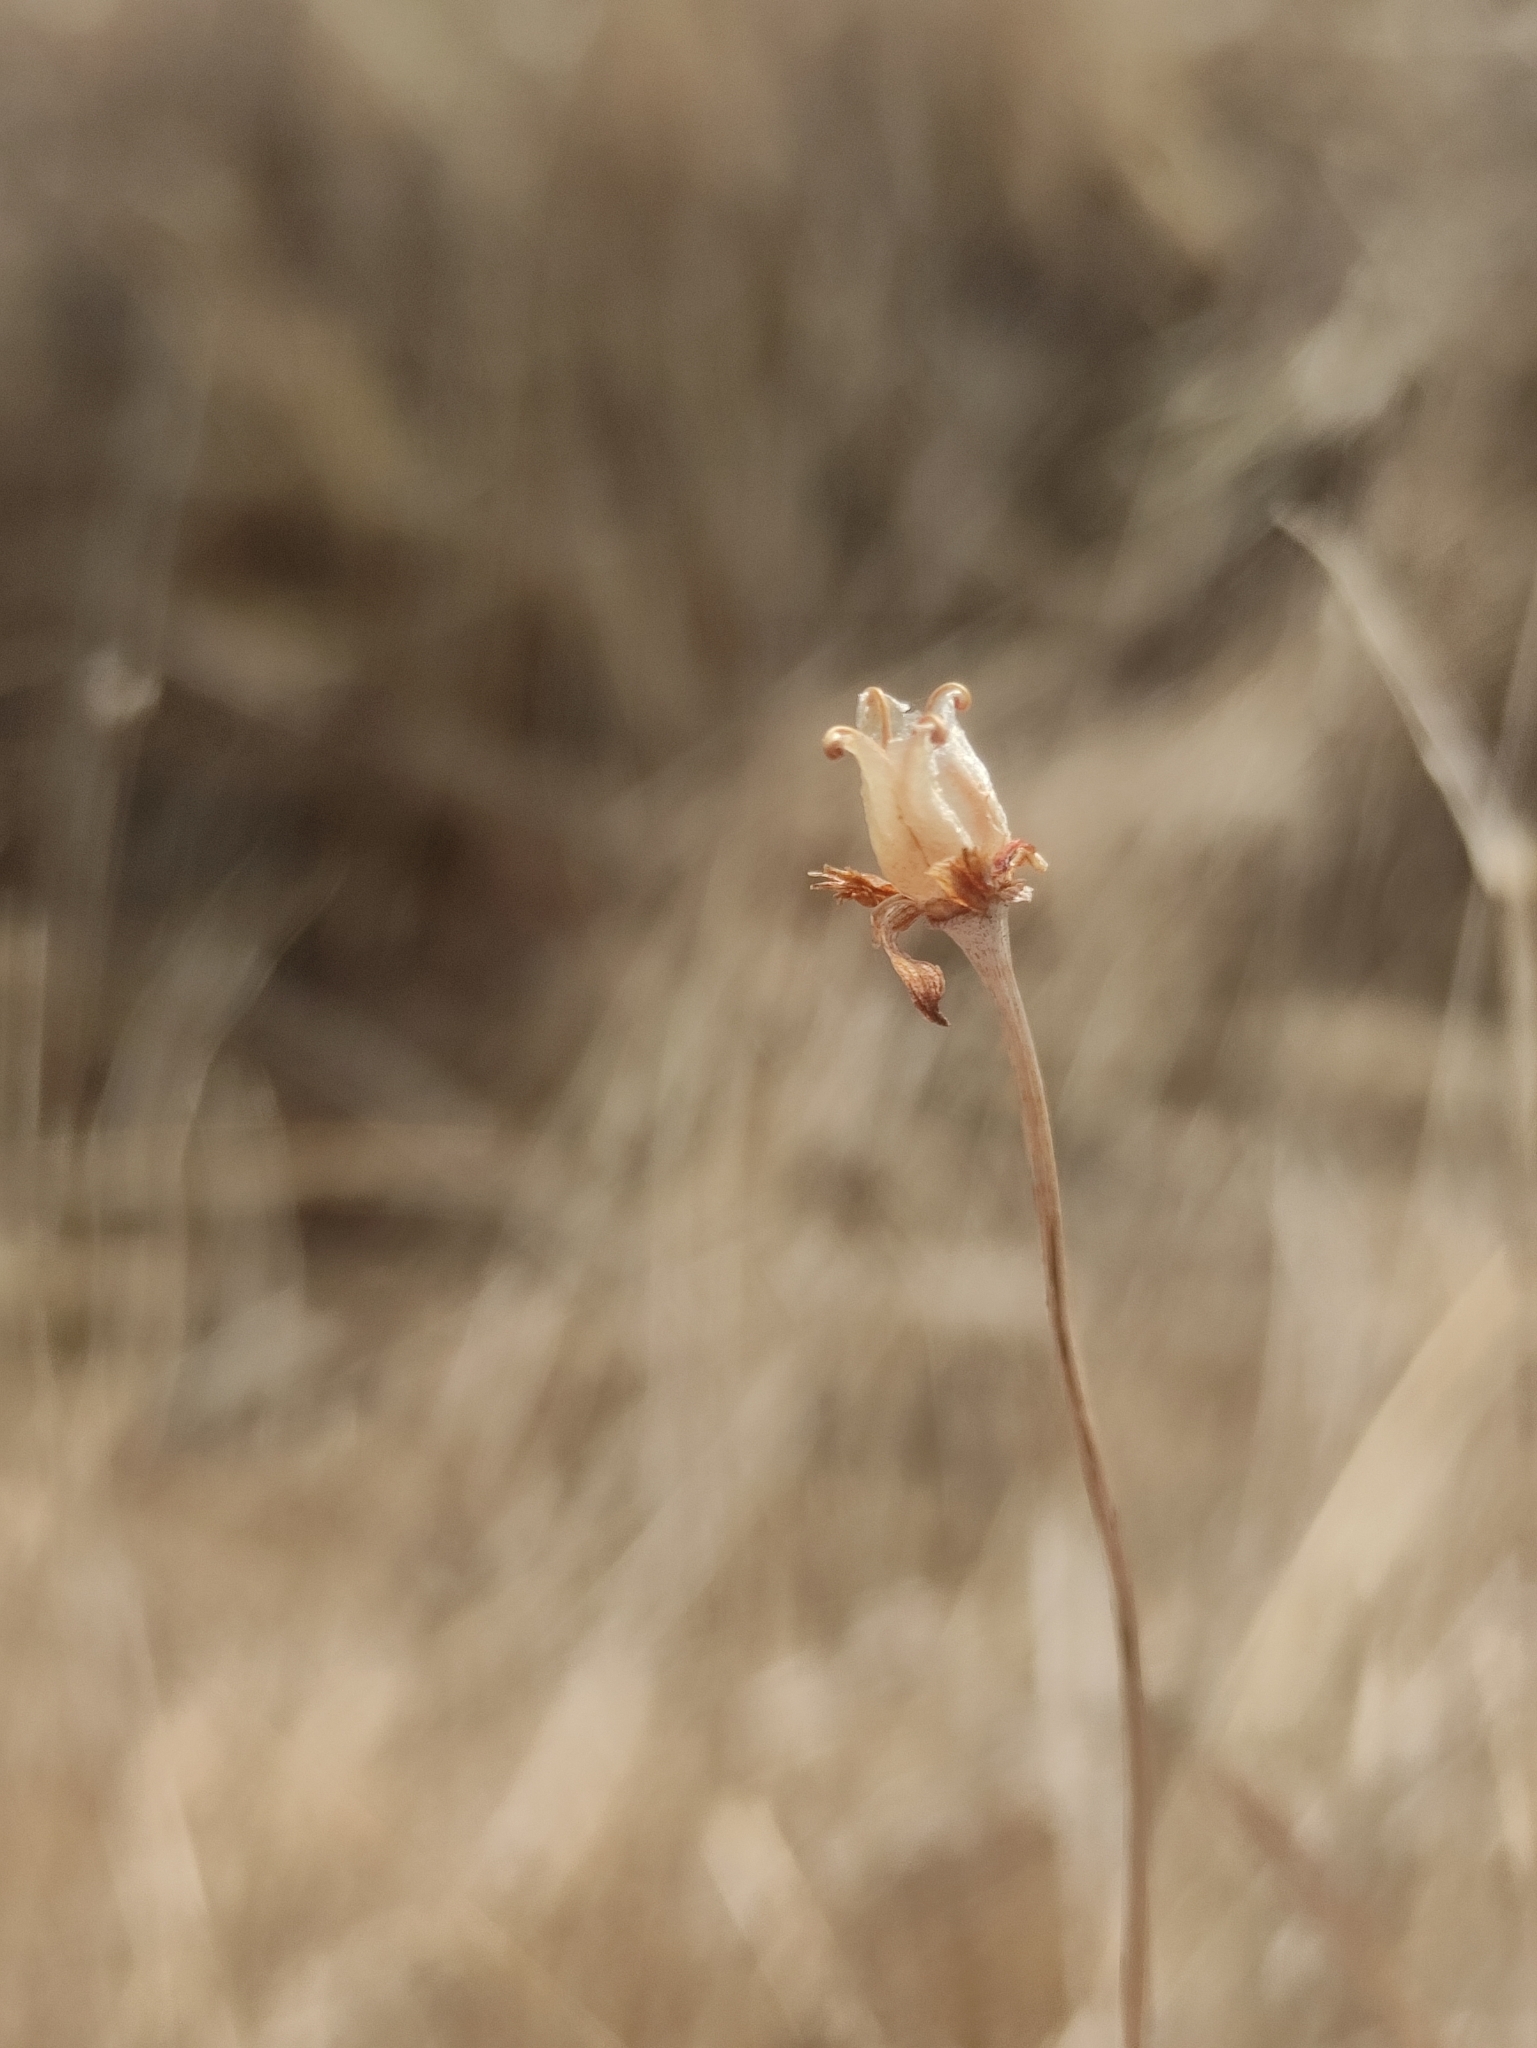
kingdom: Plantae
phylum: Tracheophyta
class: Magnoliopsida
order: Celastrales
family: Parnassiaceae
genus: Parnassia
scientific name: Parnassia palustris
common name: Grass-of-parnassus
